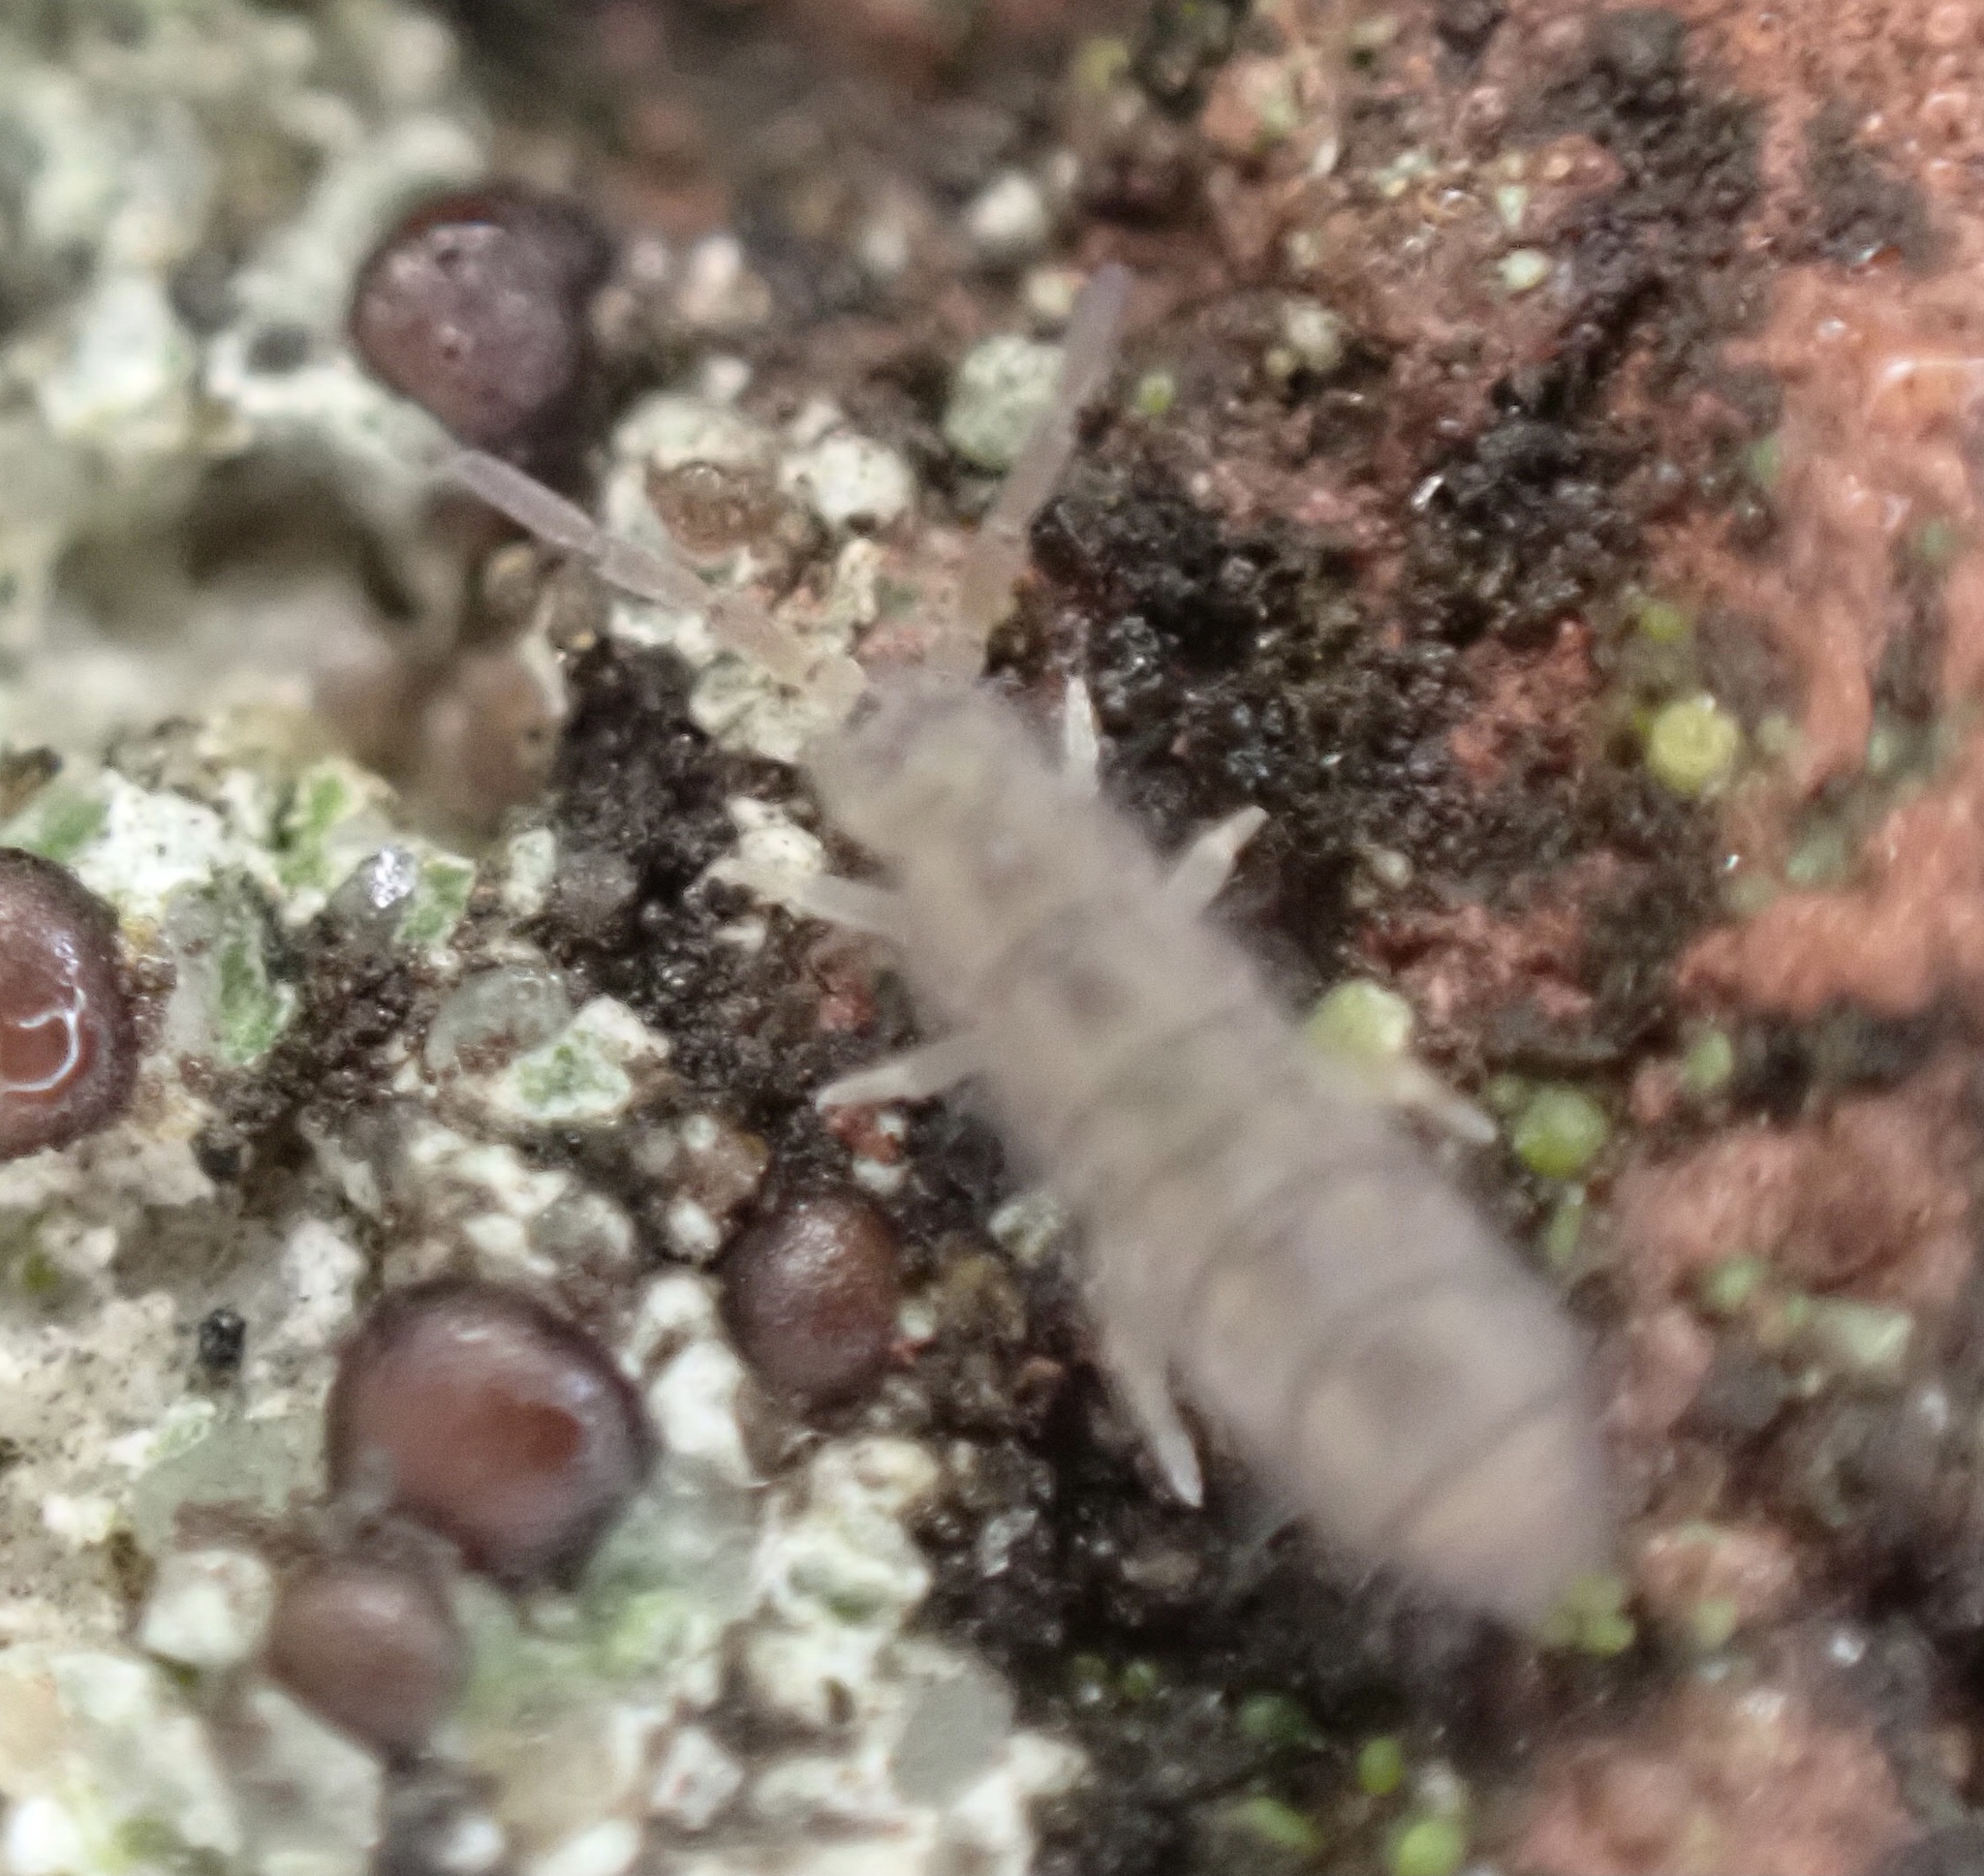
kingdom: Animalia
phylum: Arthropoda
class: Collembola
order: Entomobryomorpha
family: Isotomidae
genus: Isotoma
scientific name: Isotoma delta
